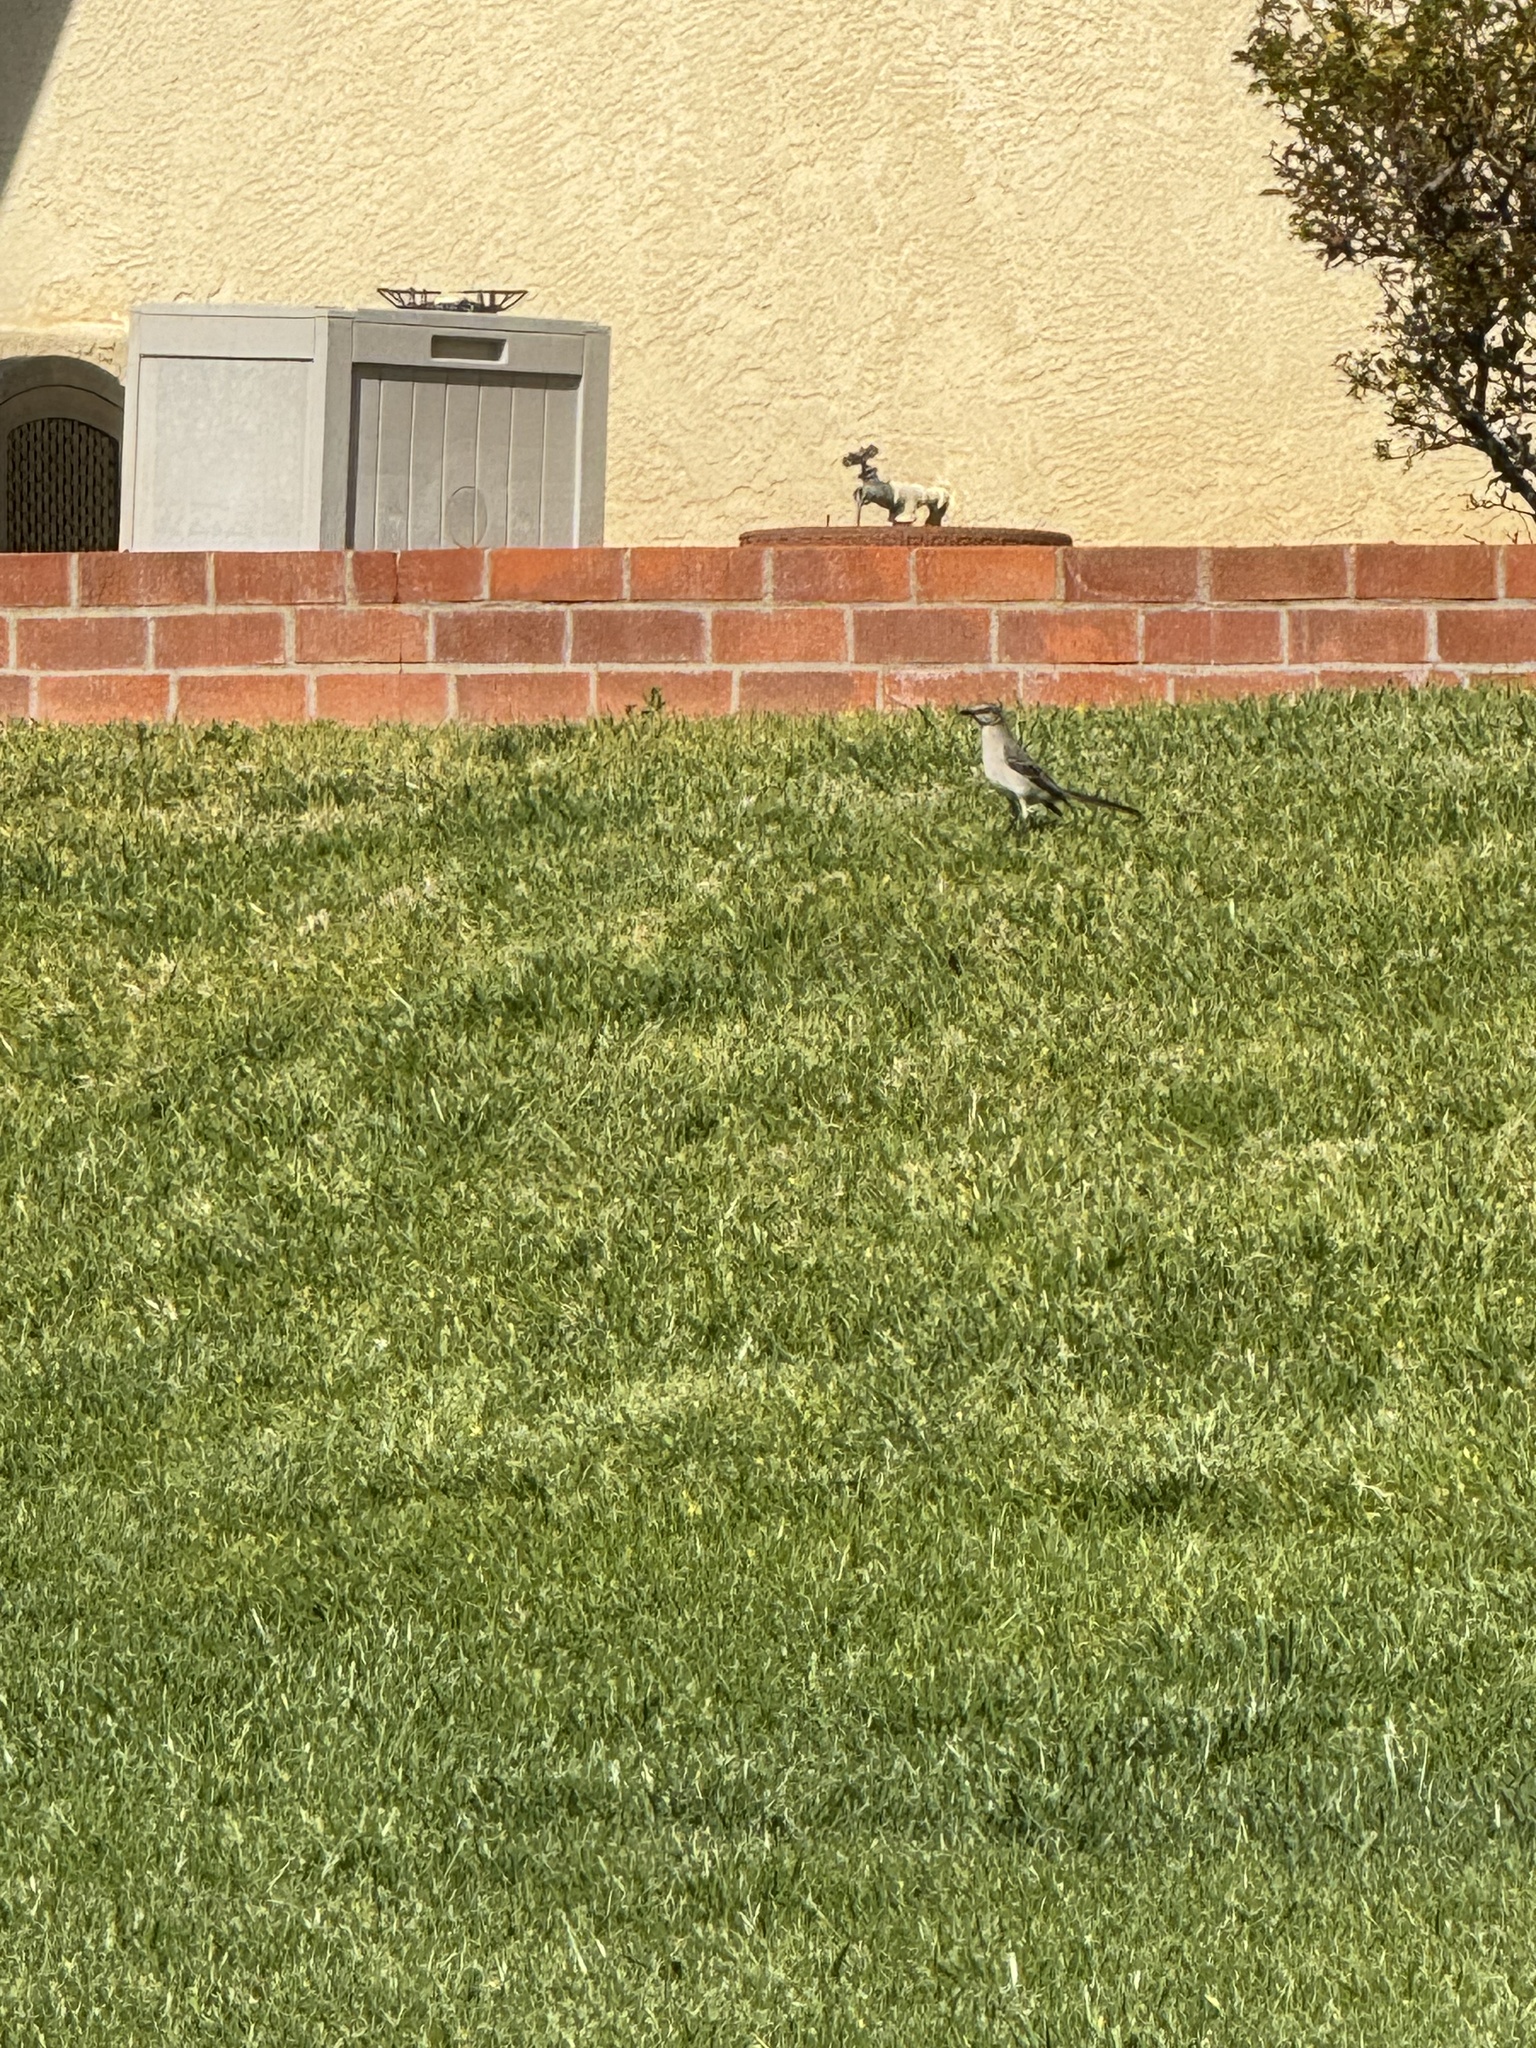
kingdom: Animalia
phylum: Chordata
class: Aves
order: Passeriformes
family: Mimidae
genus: Mimus
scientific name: Mimus polyglottos
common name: Northern mockingbird
